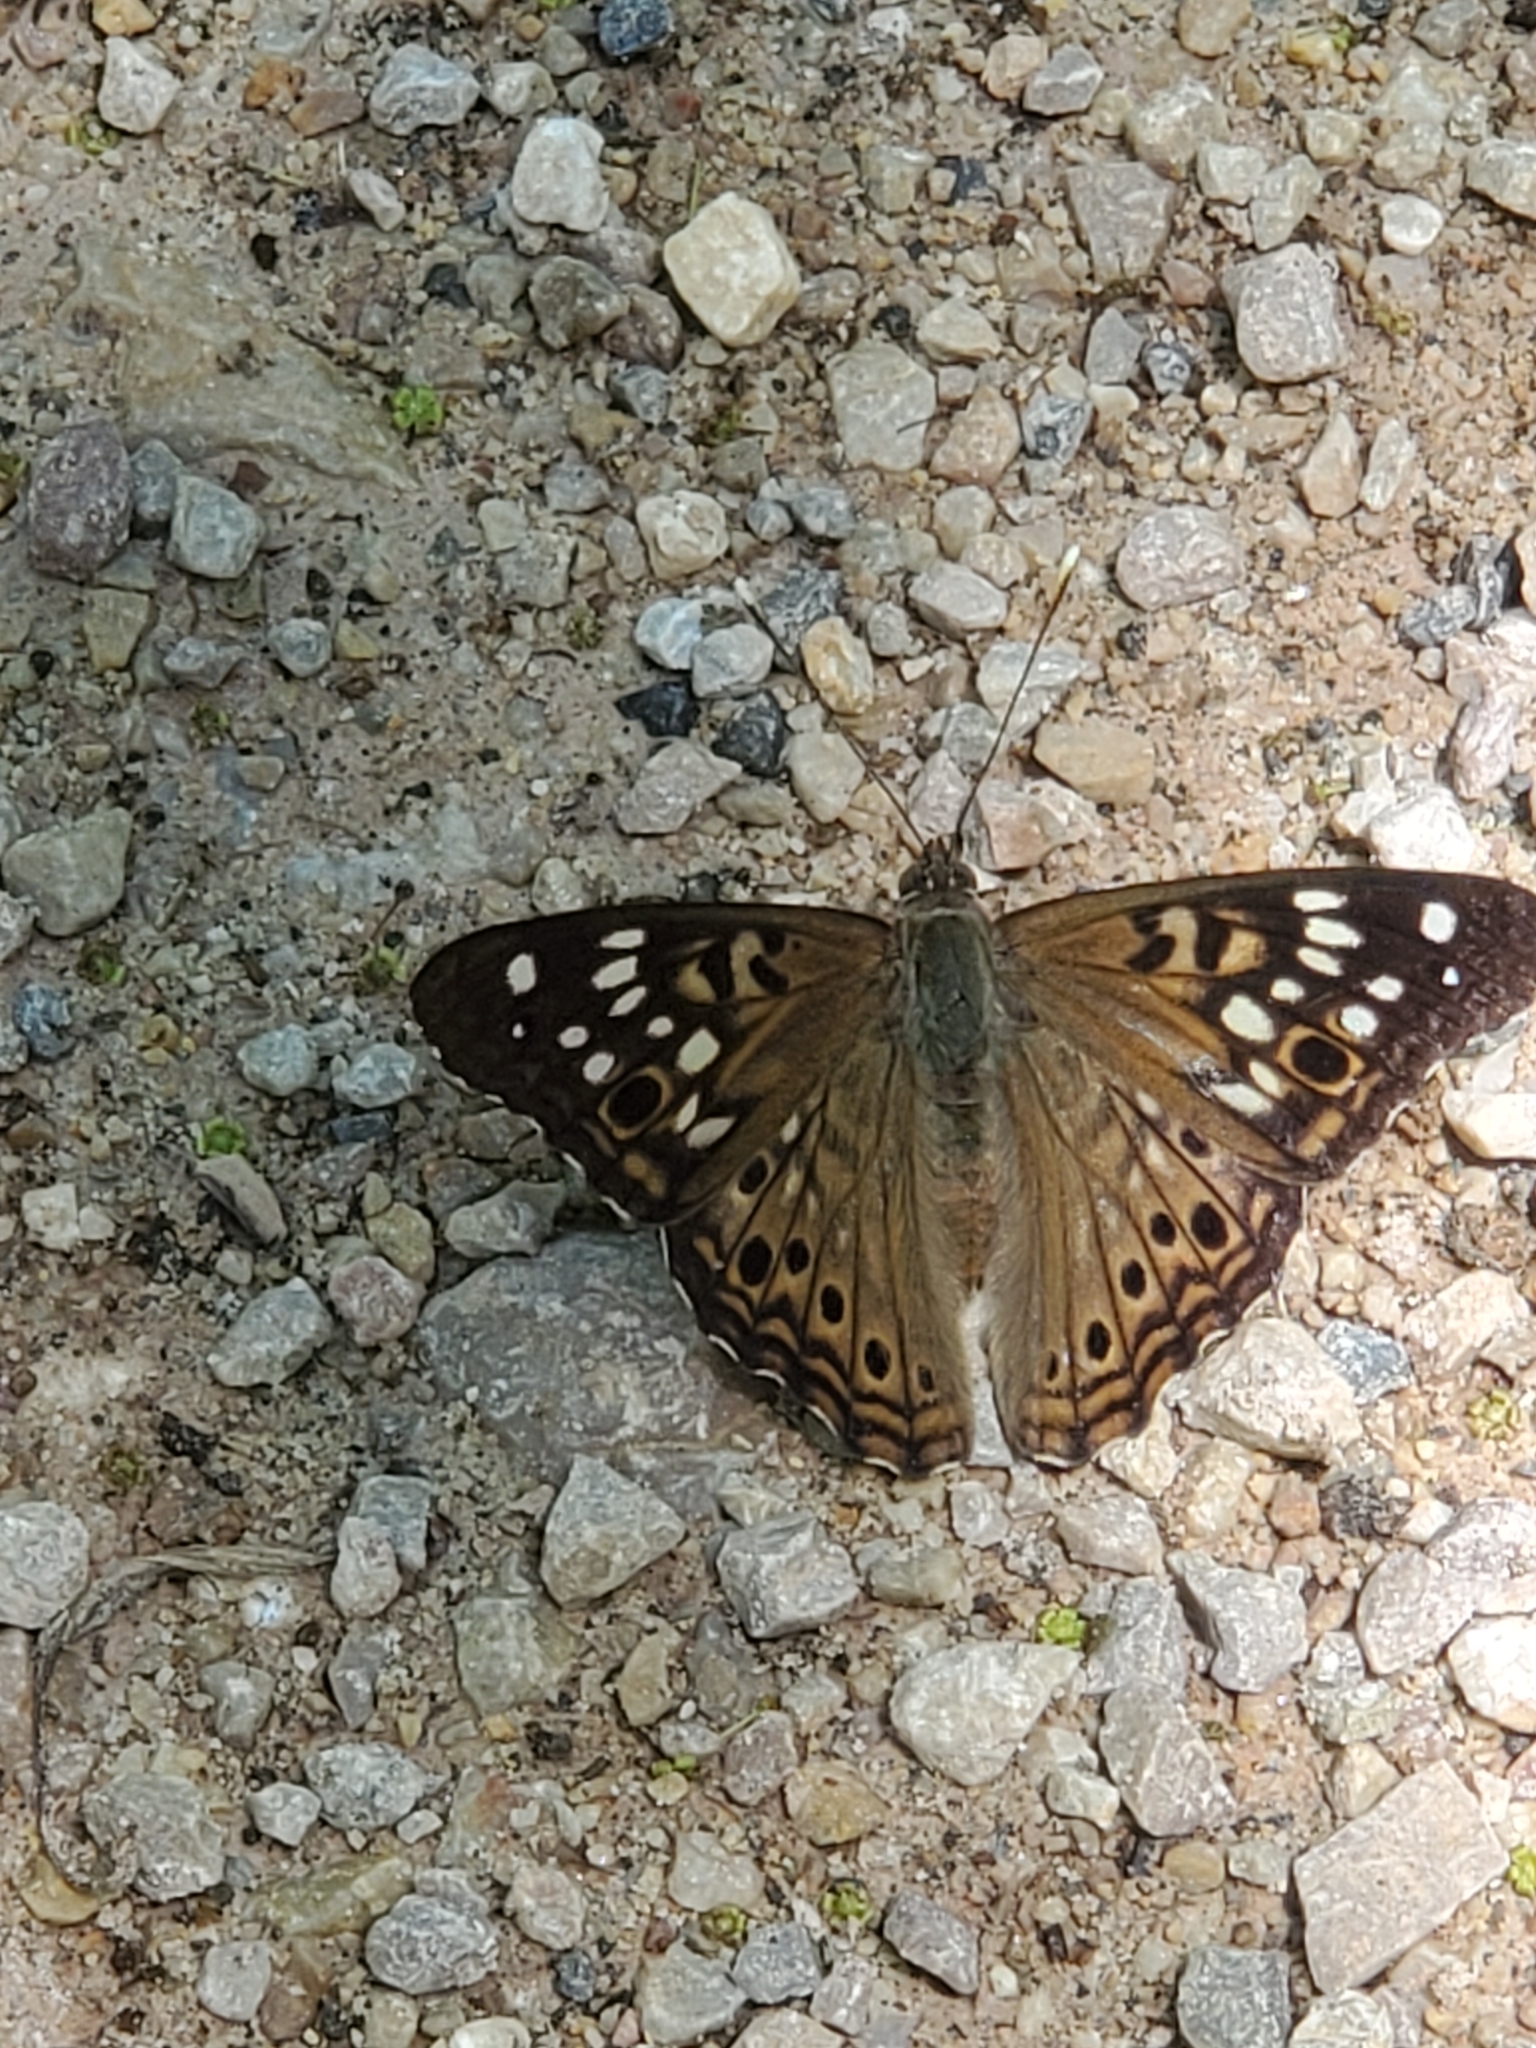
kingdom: Animalia
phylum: Arthropoda
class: Insecta
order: Lepidoptera
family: Nymphalidae
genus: Asterocampa
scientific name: Asterocampa celtis
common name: Hackberry emperor
